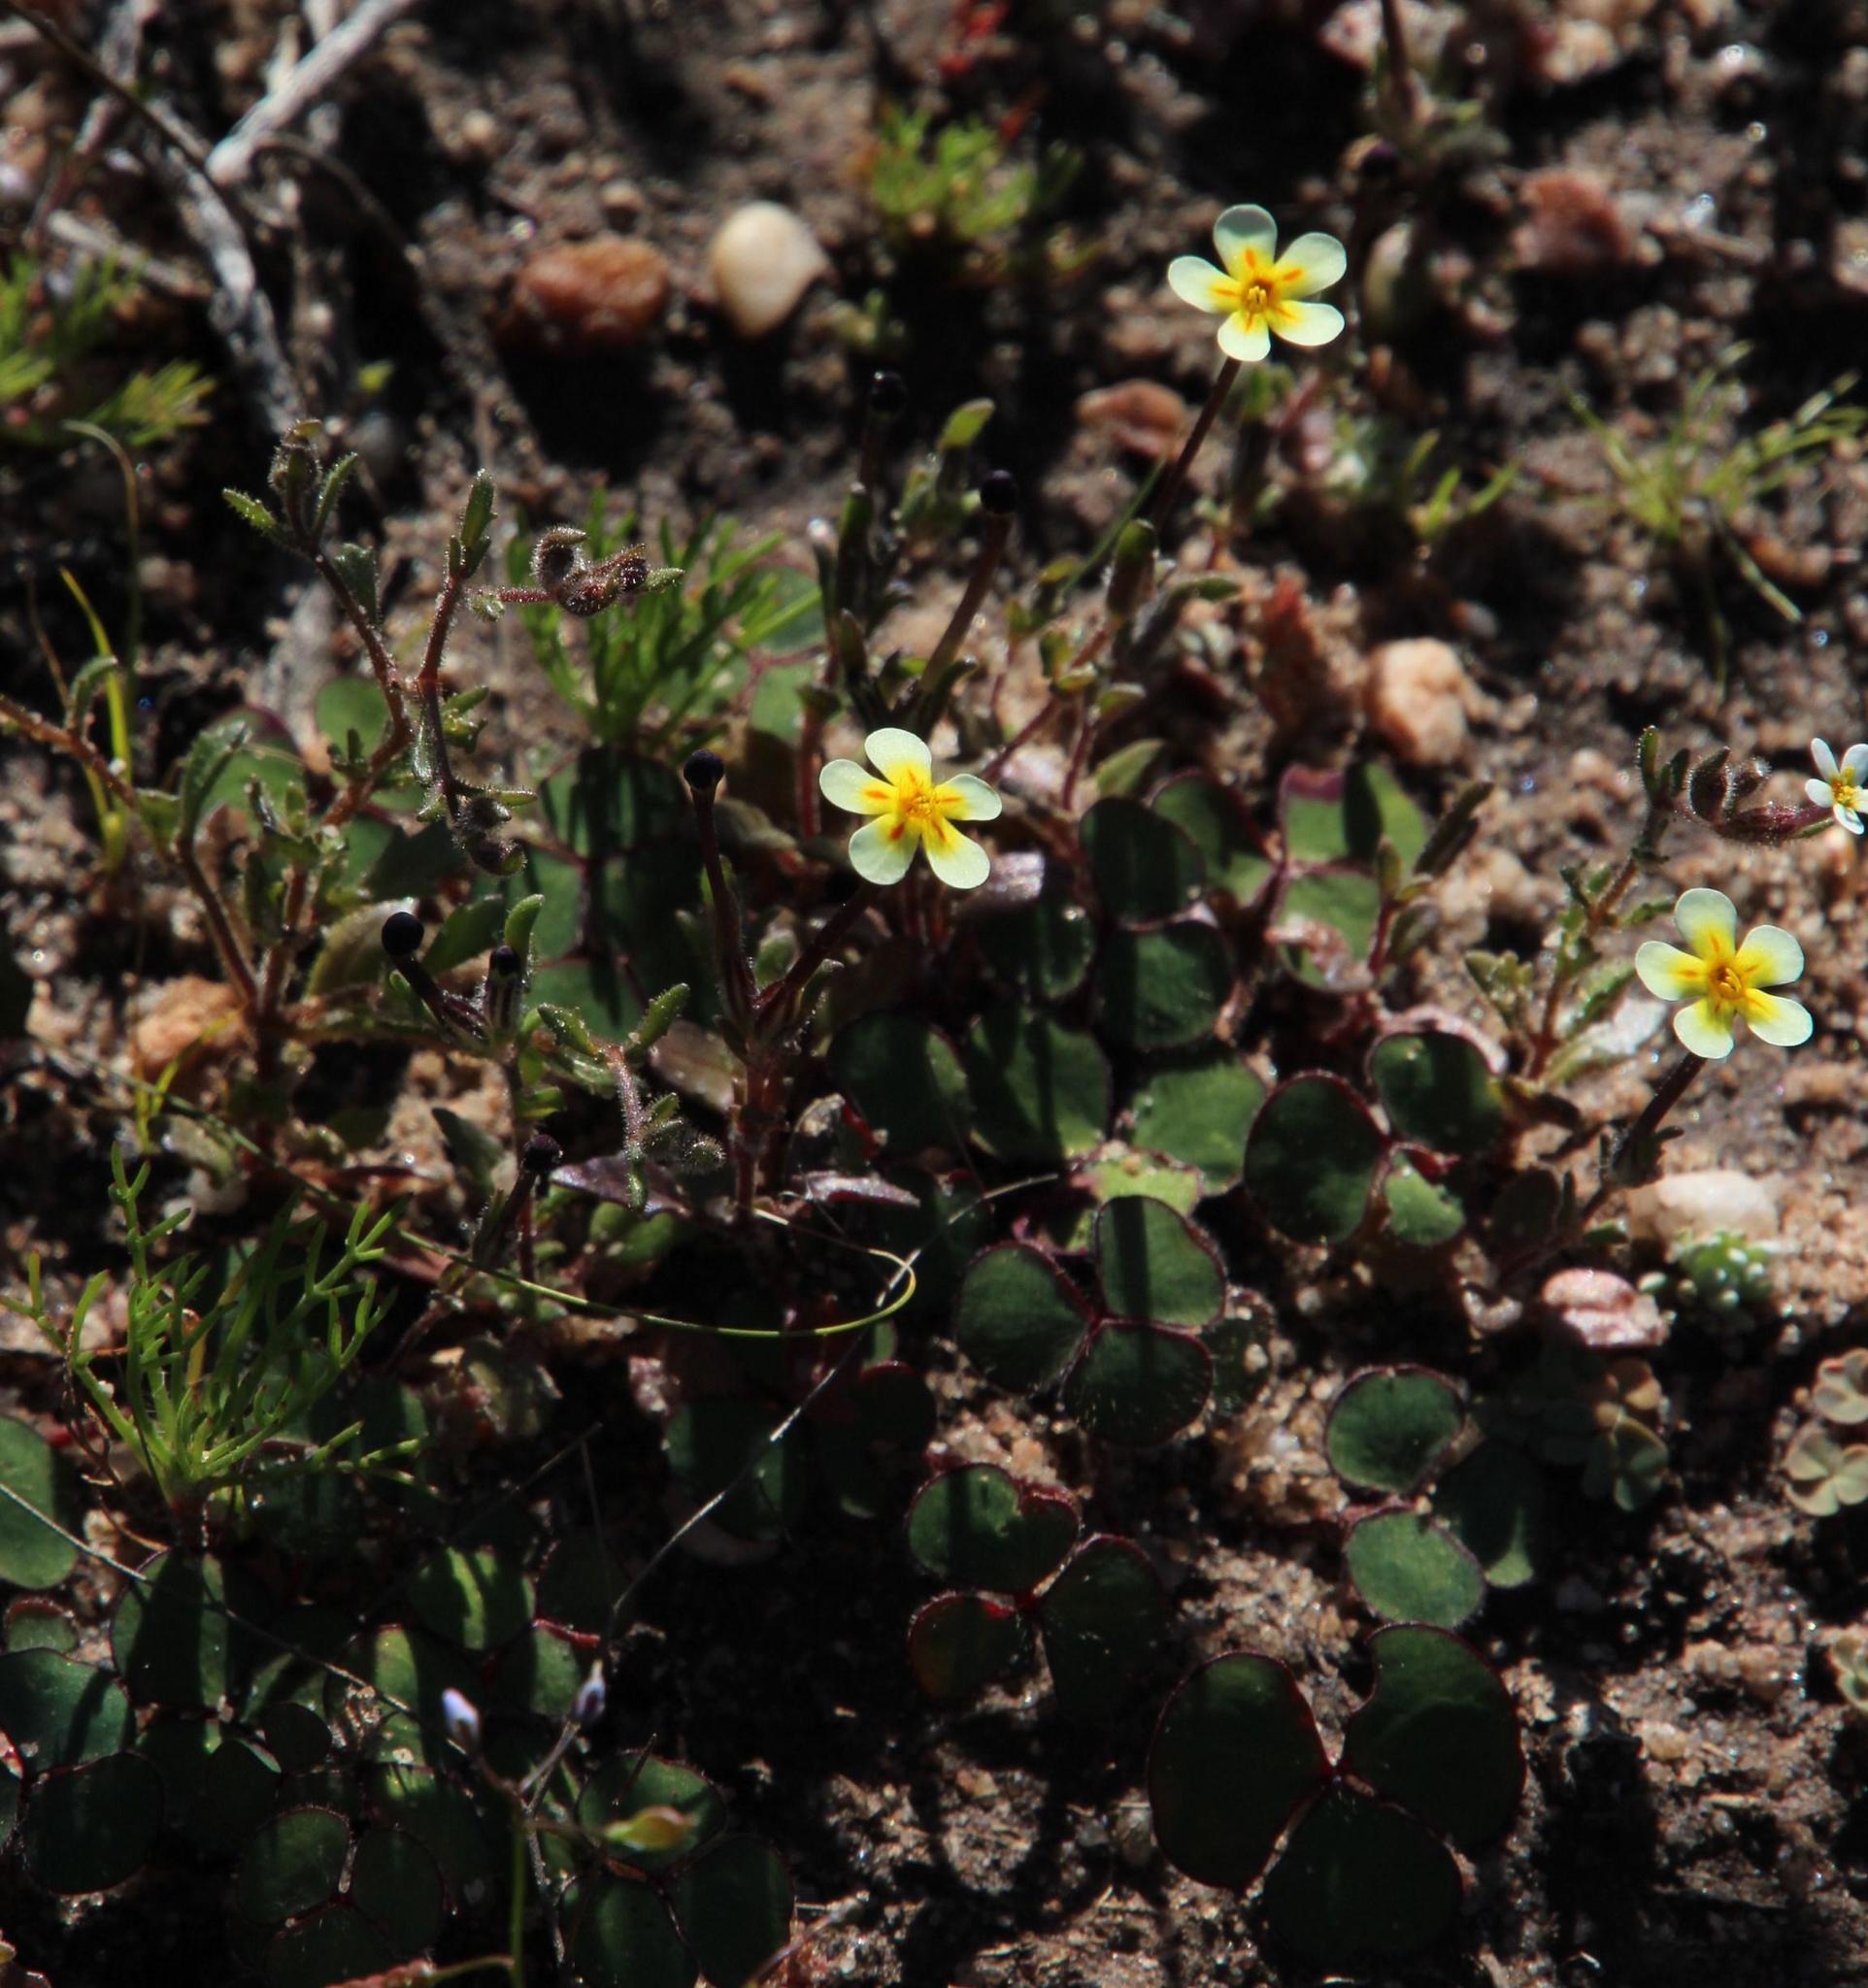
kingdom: Plantae
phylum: Tracheophyta
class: Magnoliopsida
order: Lamiales
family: Scrophulariaceae
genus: Zaluzianskya
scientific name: Zaluzianskya pusilla
